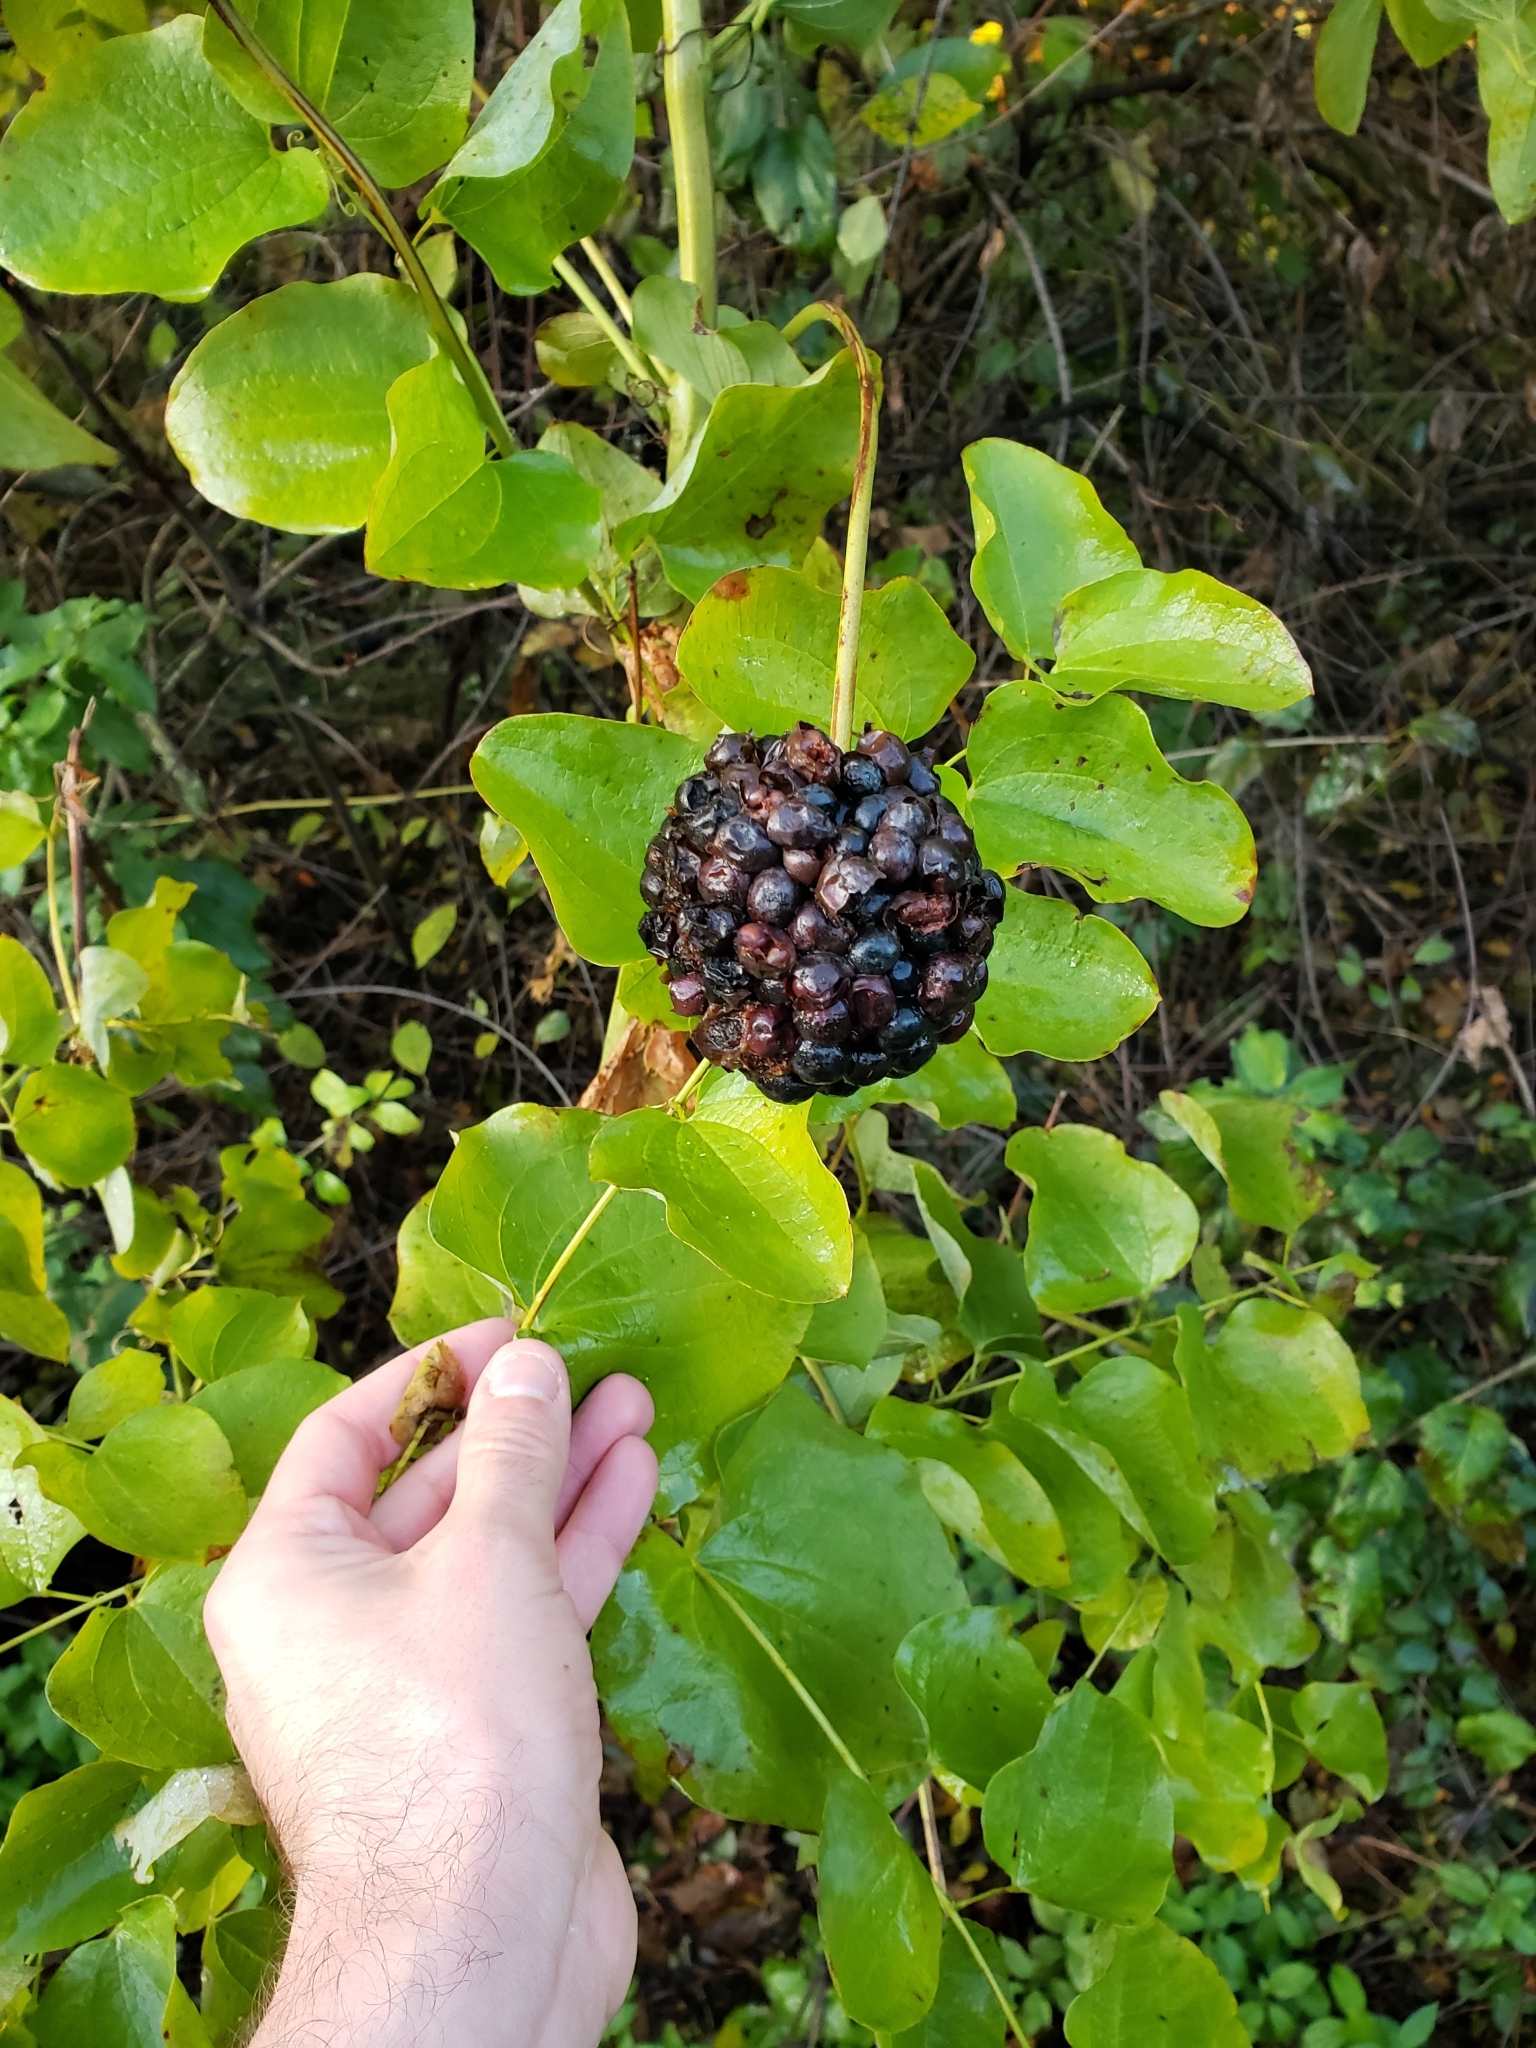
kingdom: Plantae
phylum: Tracheophyta
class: Liliopsida
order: Liliales
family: Smilacaceae
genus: Smilax
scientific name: Smilax lasioneura
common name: Blue ridge carrionflower
